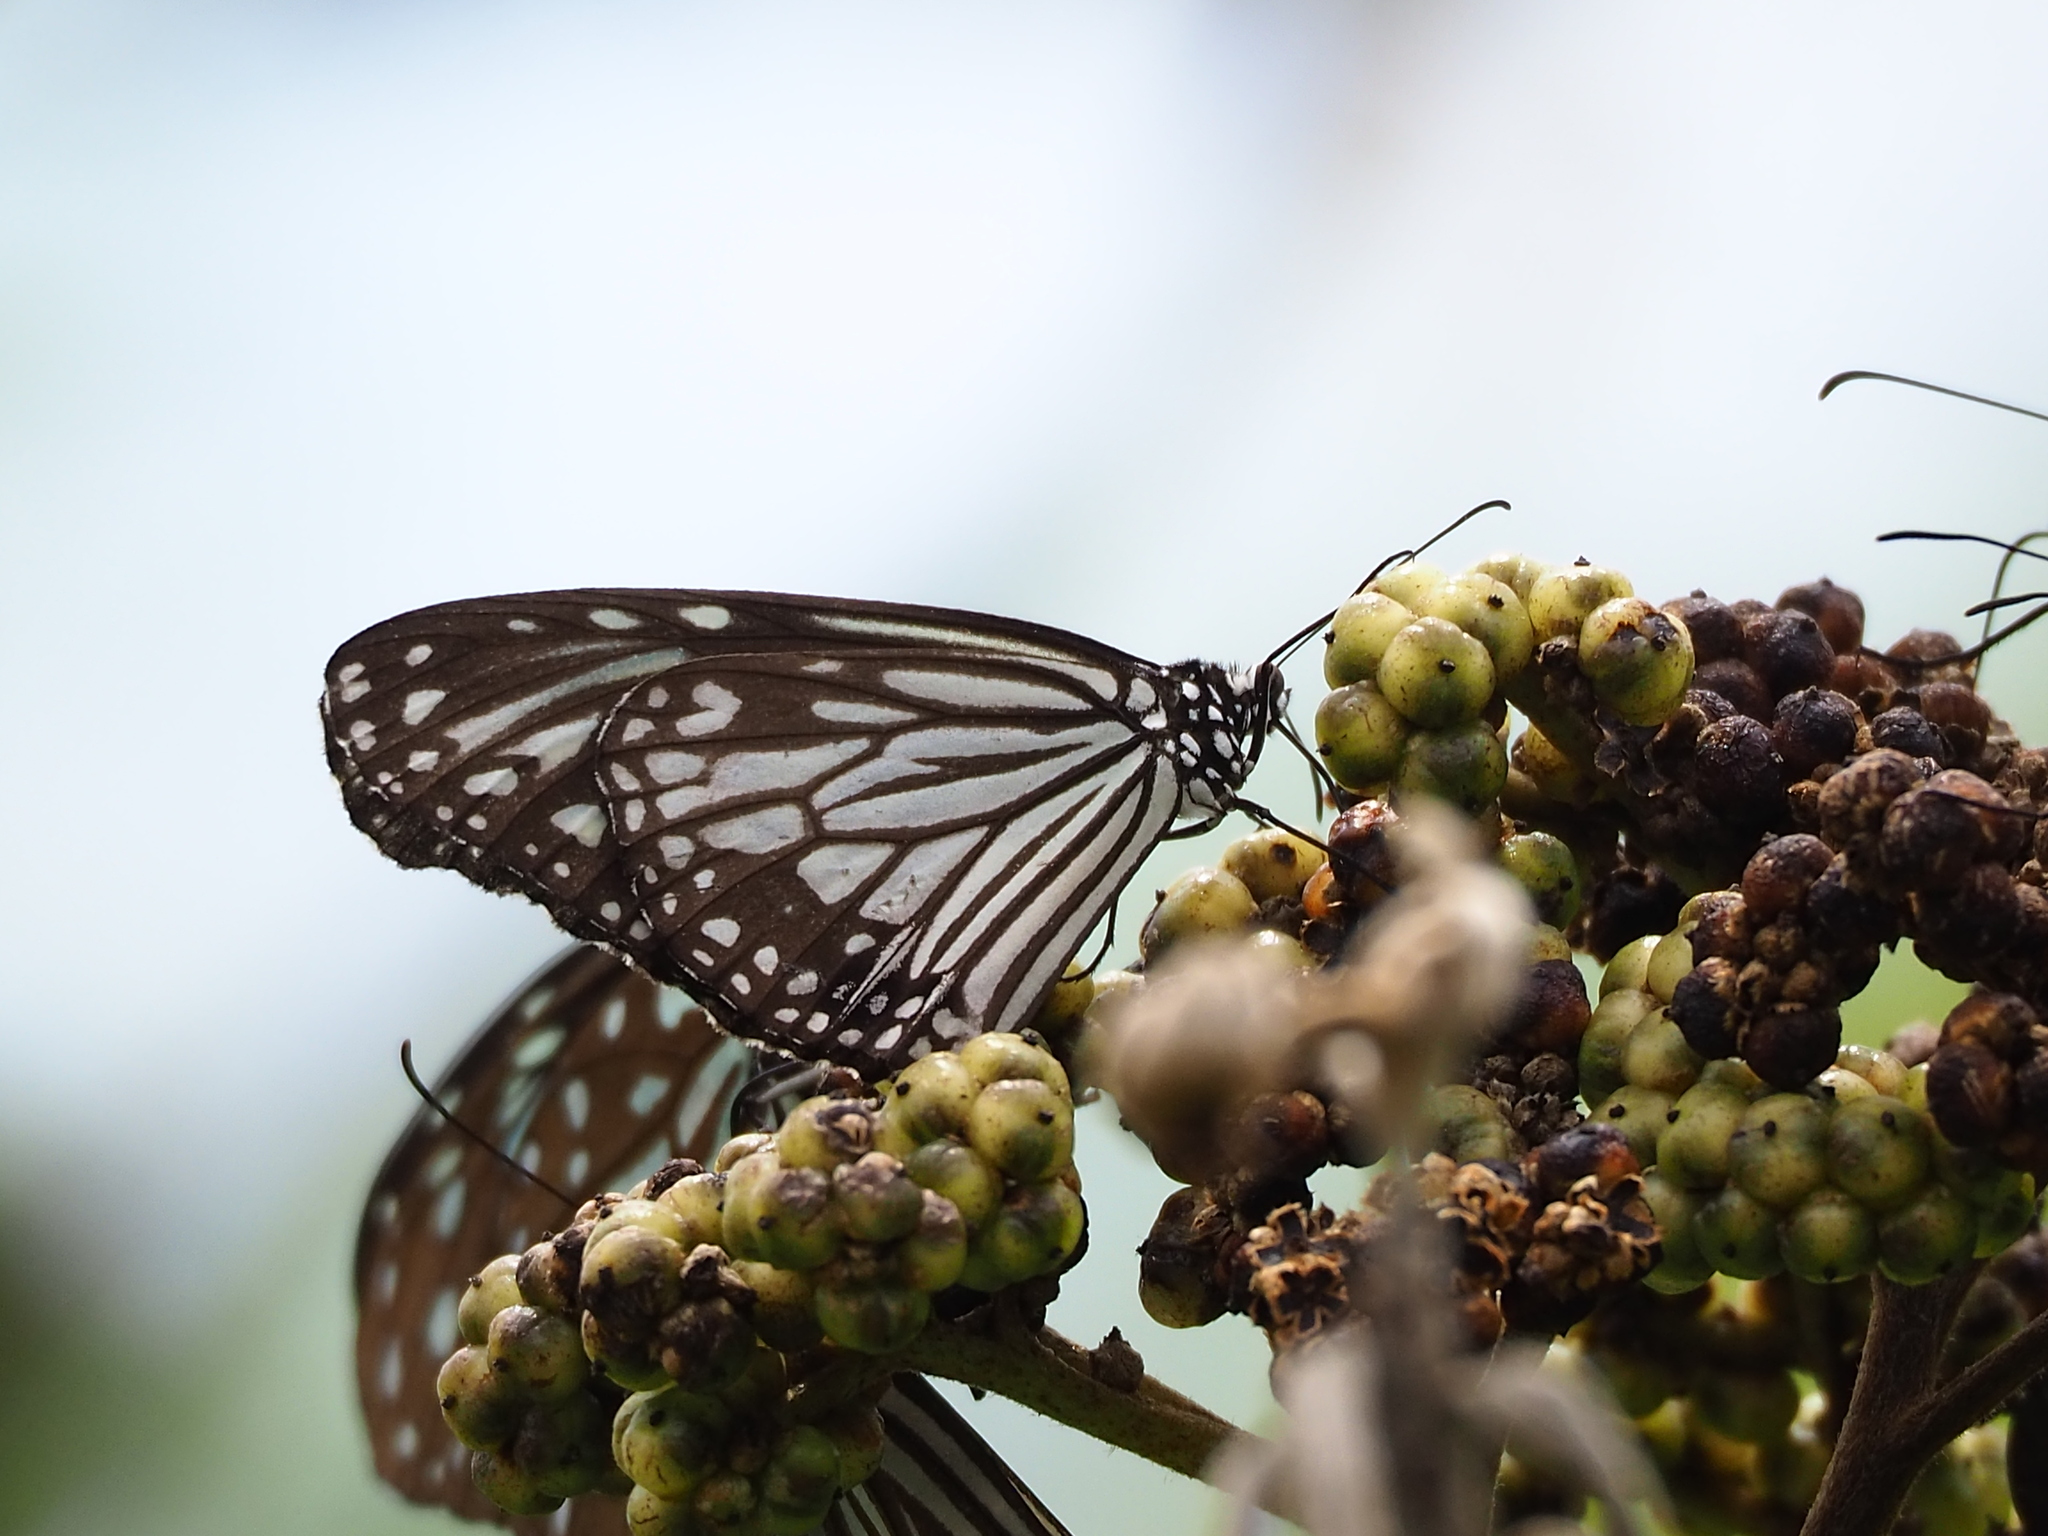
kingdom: Animalia
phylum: Arthropoda
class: Insecta
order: Lepidoptera
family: Nymphalidae
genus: Parantica
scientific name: Parantica aglea
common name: Glassy tiger
